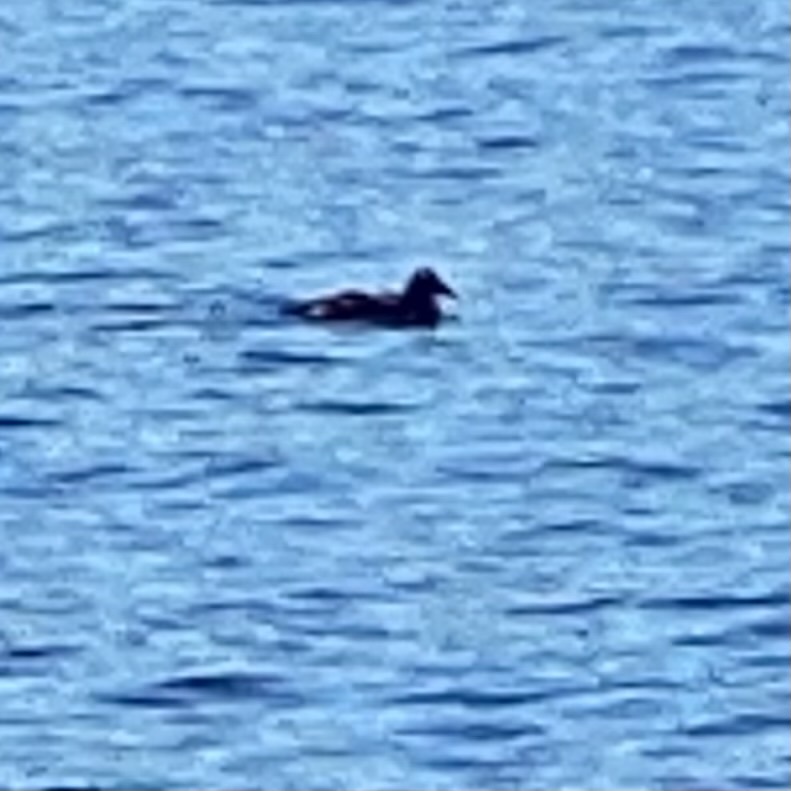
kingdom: Animalia
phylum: Chordata
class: Aves
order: Anseriformes
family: Anatidae
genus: Somateria
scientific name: Somateria mollissima
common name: Common eider
